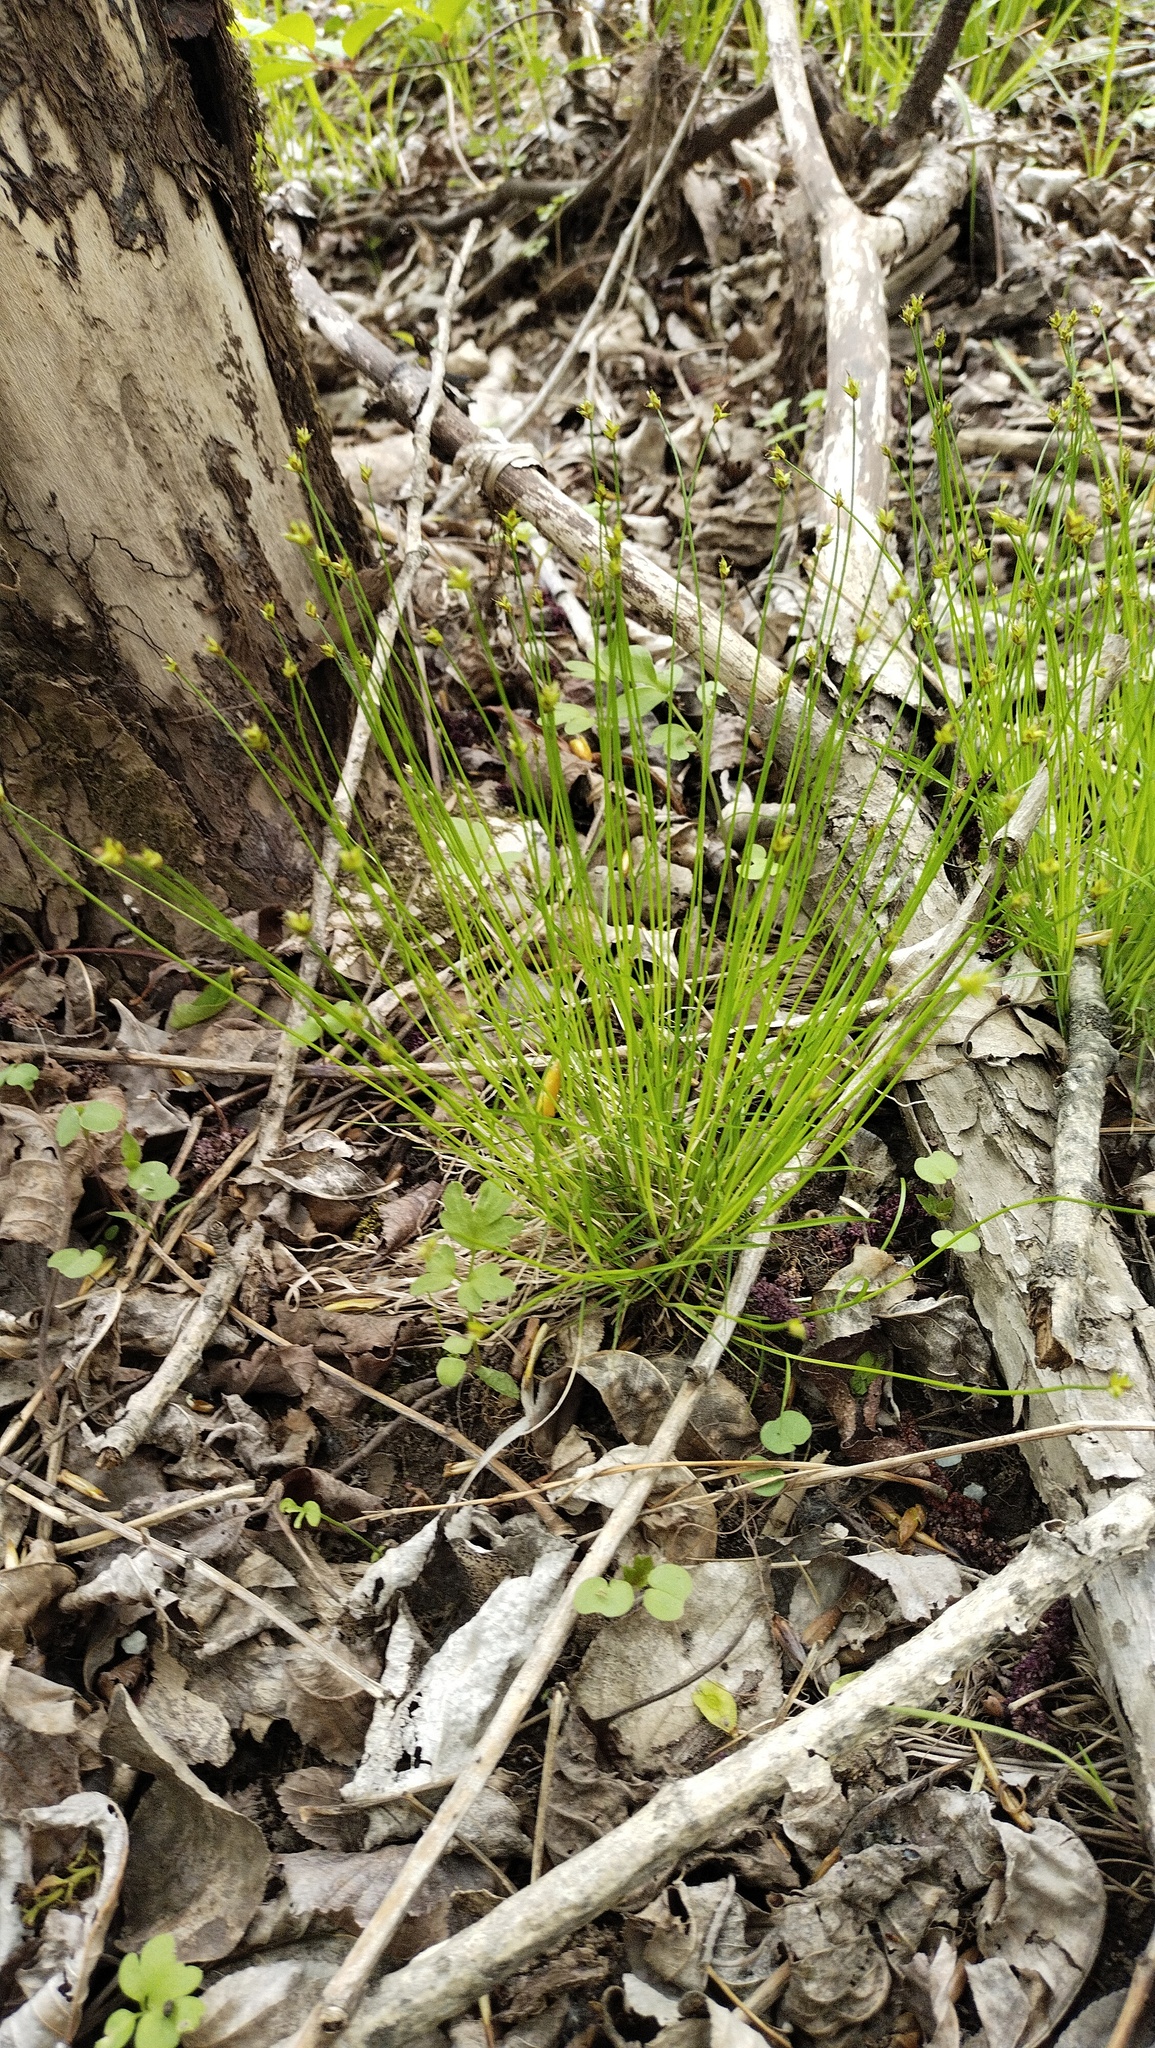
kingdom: Plantae
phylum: Tracheophyta
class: Liliopsida
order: Poales
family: Cyperaceae
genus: Carex
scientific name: Carex onoei
